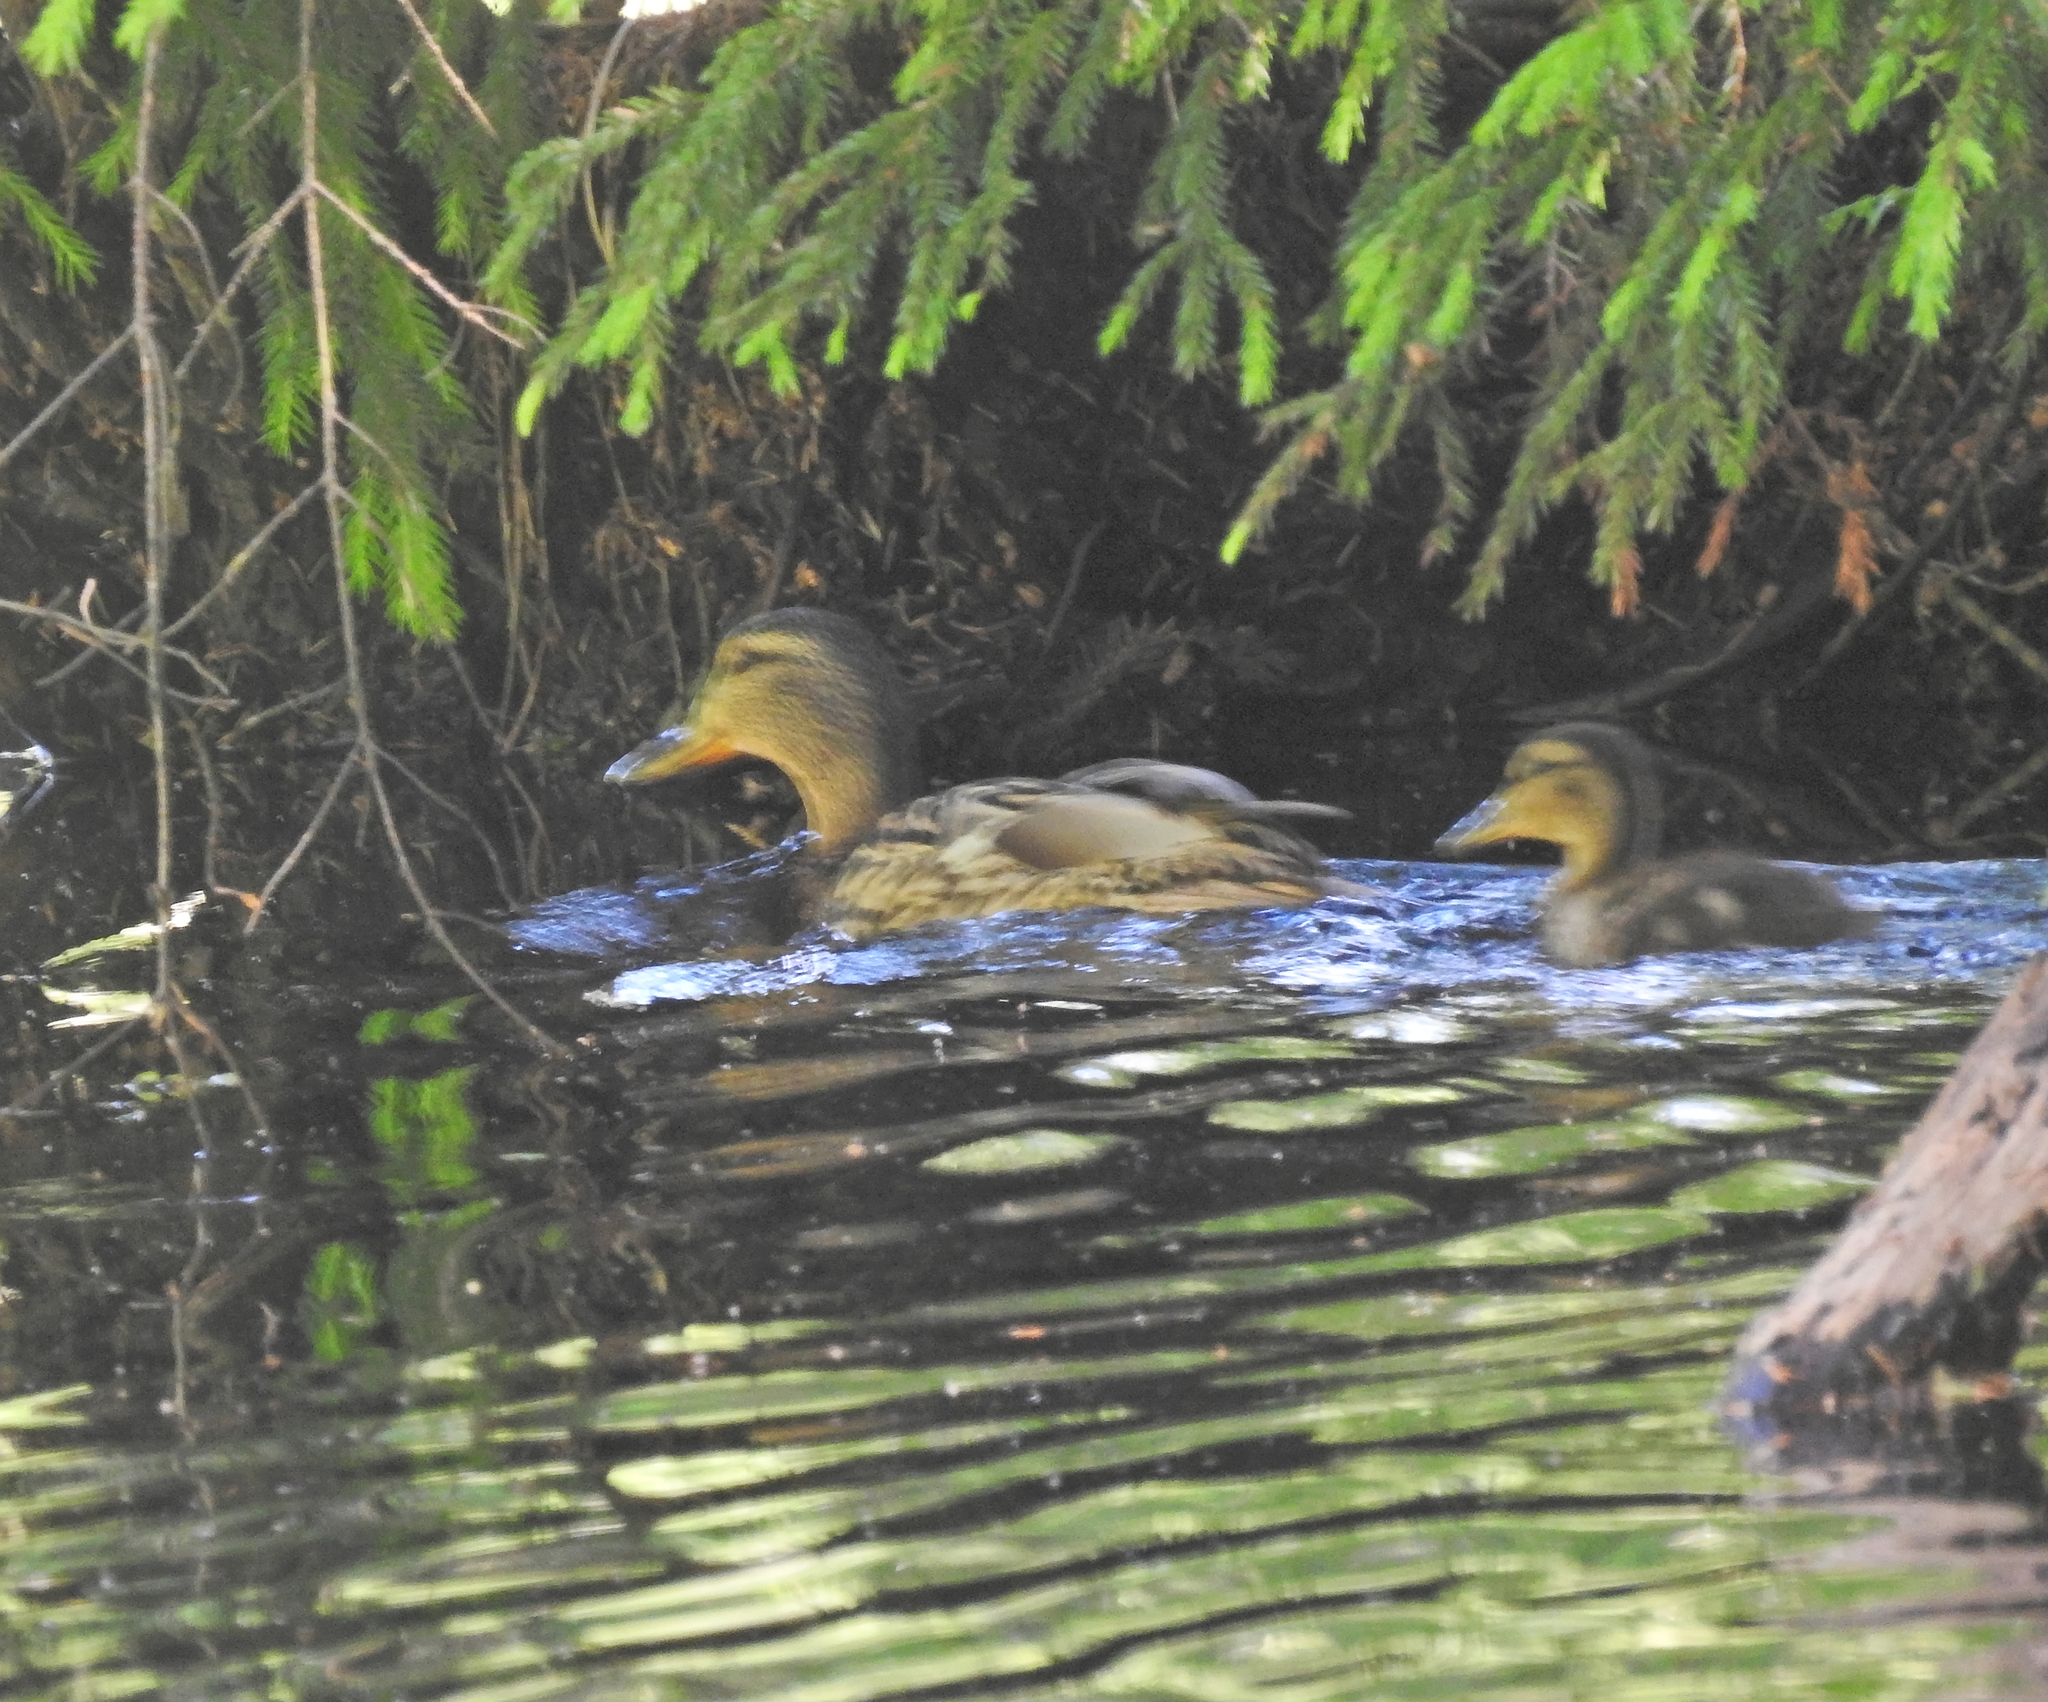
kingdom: Animalia
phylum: Chordata
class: Aves
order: Anseriformes
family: Anatidae
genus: Anas
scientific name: Anas platyrhynchos
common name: Mallard
